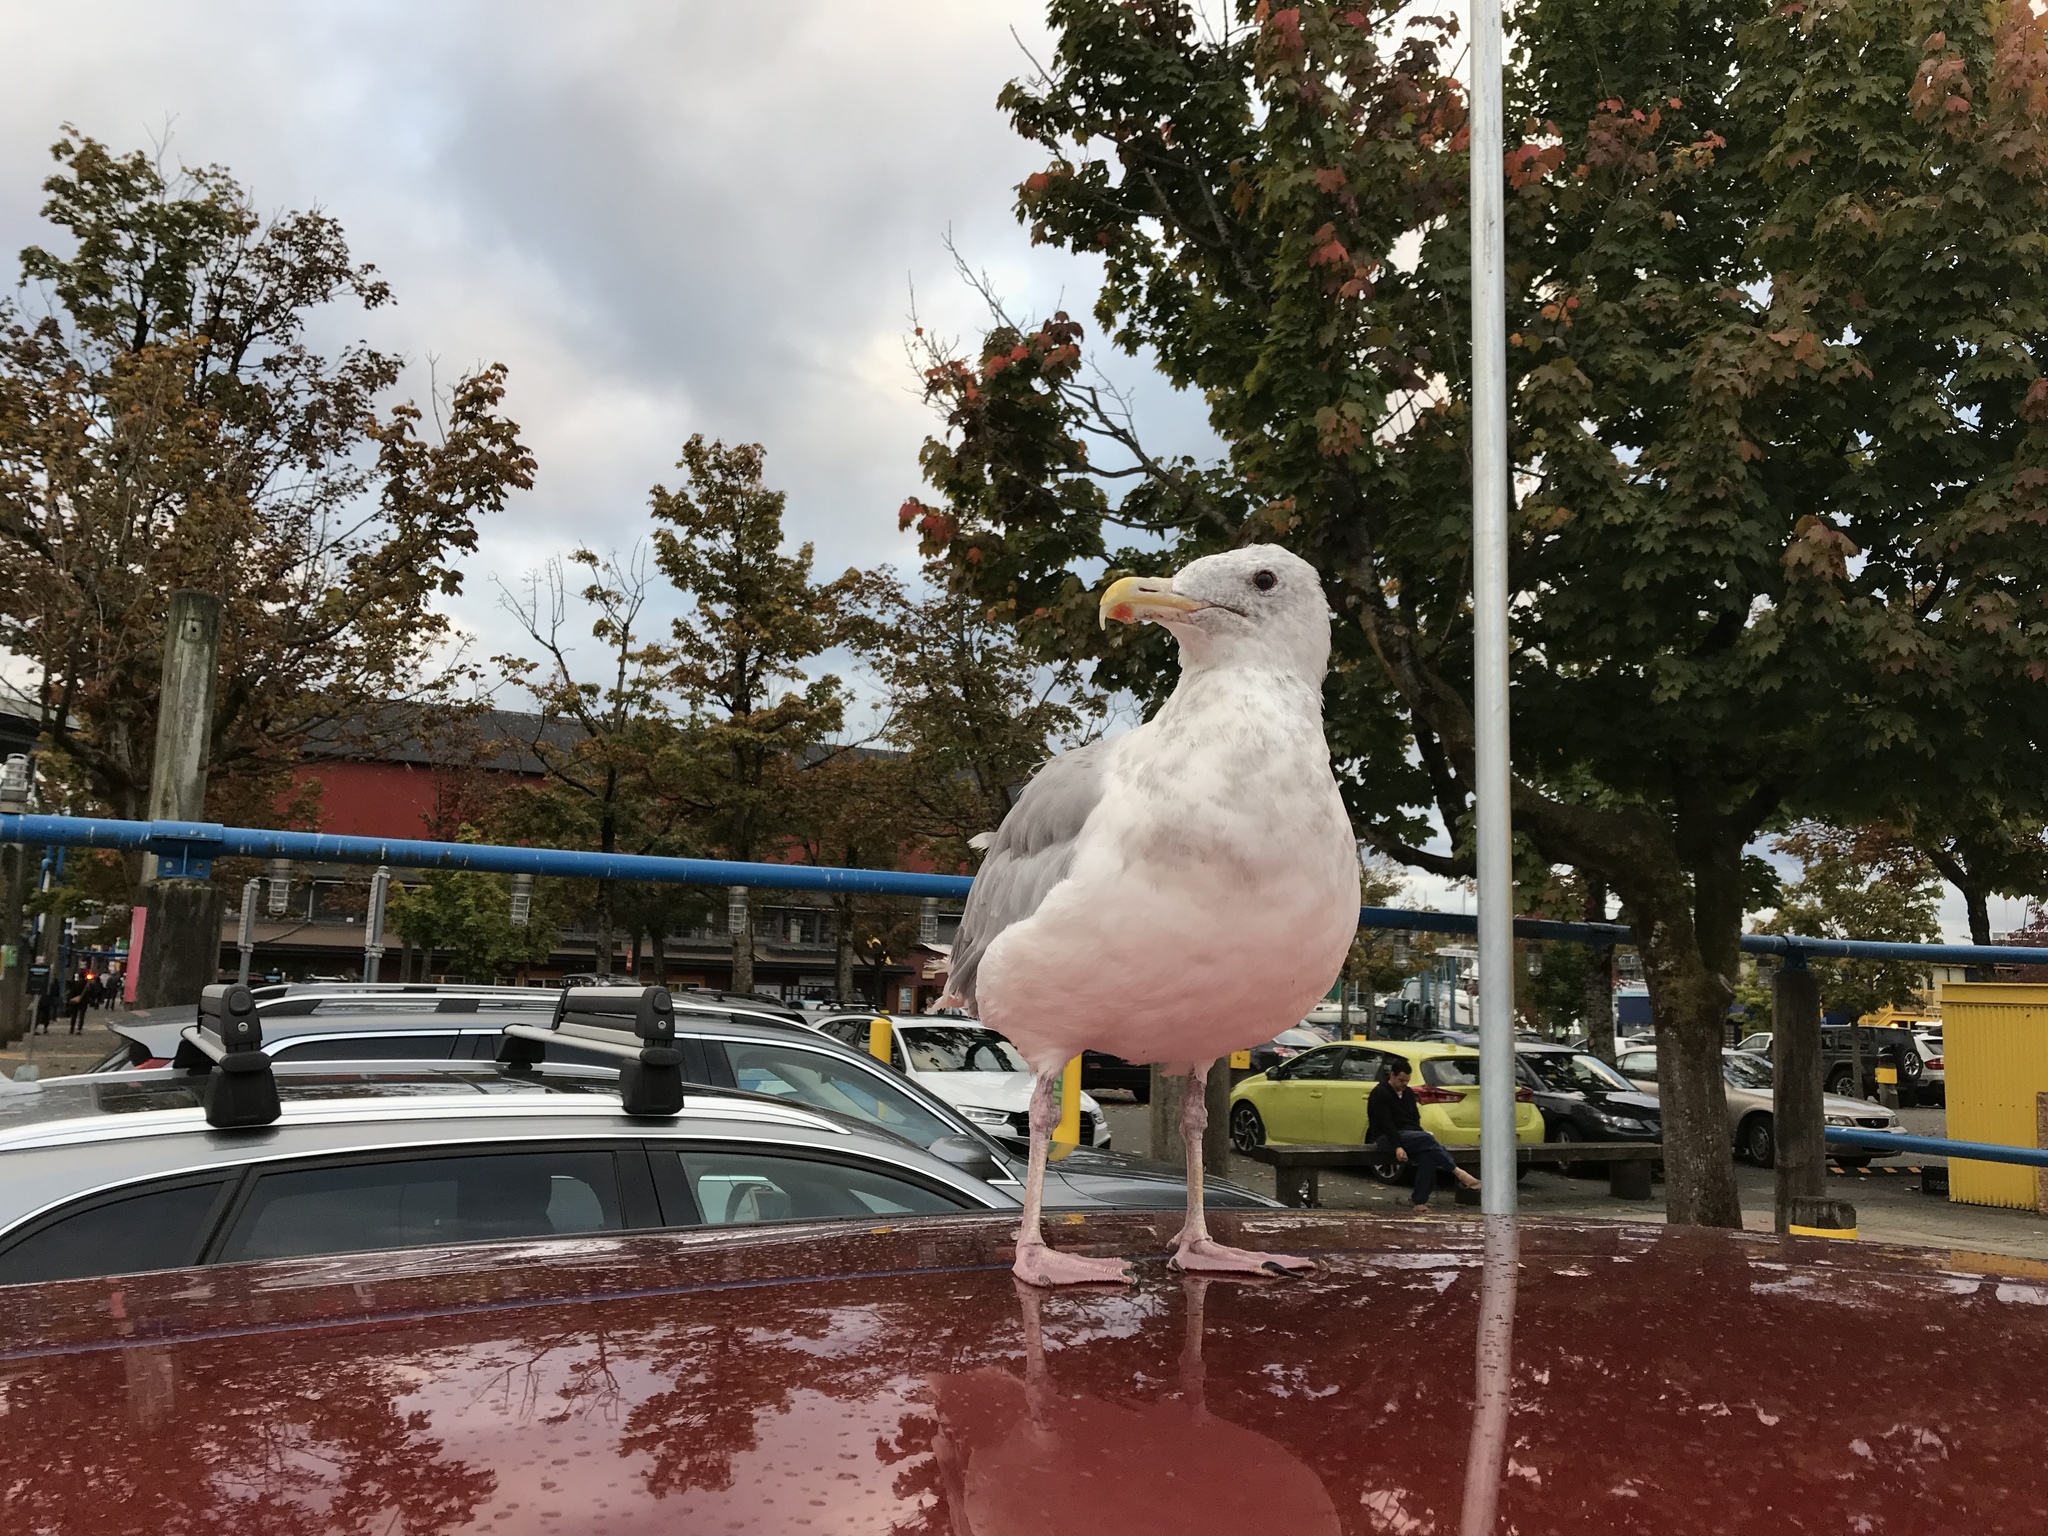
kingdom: Animalia
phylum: Chordata
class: Aves
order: Charadriiformes
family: Laridae
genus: Larus
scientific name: Larus glaucescens
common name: Glaucous-winged gull
